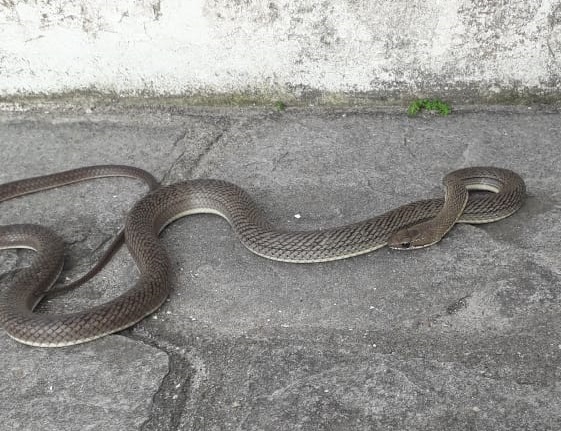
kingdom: Animalia
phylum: Chordata
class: Squamata
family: Colubridae
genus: Philodryas
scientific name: Philodryas nattereri
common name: Paraguay green racer
